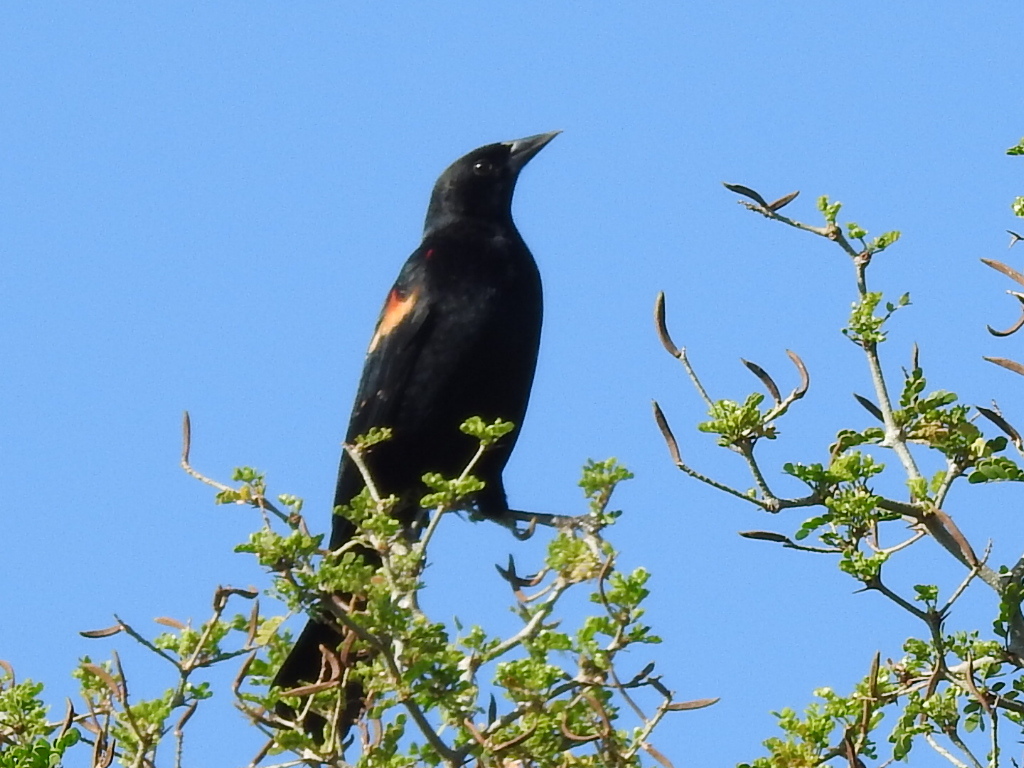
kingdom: Animalia
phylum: Chordata
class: Aves
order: Passeriformes
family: Icteridae
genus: Agelaius
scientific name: Agelaius phoeniceus
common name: Red-winged blackbird
